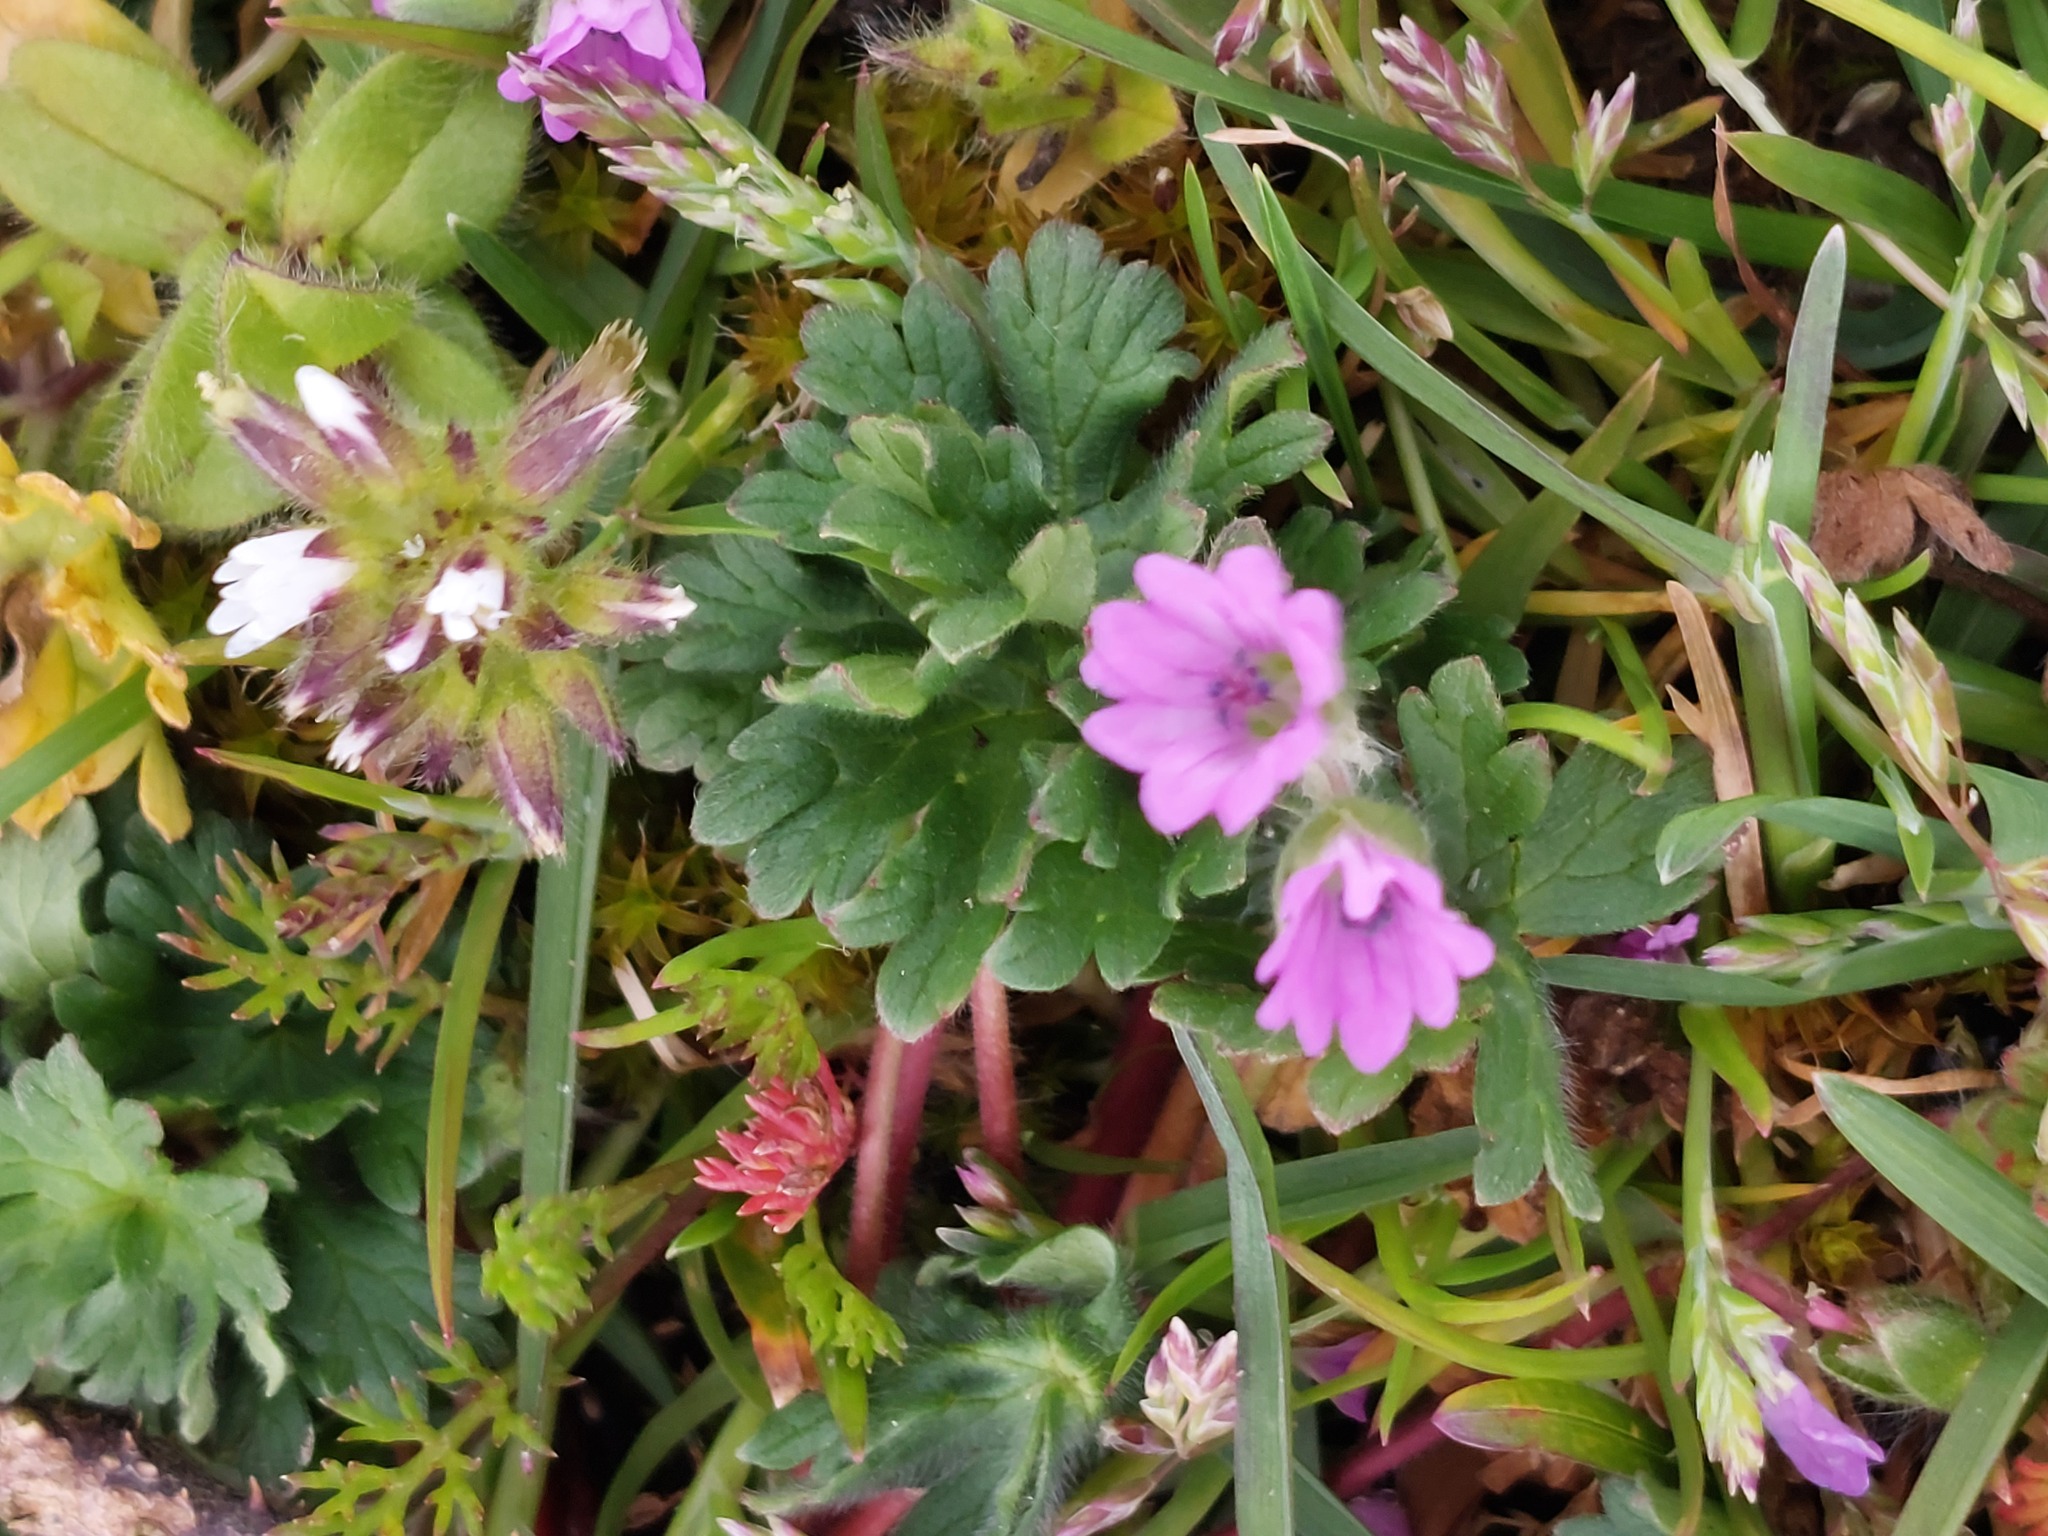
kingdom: Plantae
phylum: Tracheophyta
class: Magnoliopsida
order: Geraniales
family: Geraniaceae
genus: Geranium
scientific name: Geranium molle
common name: Dove's-foot crane's-bill
